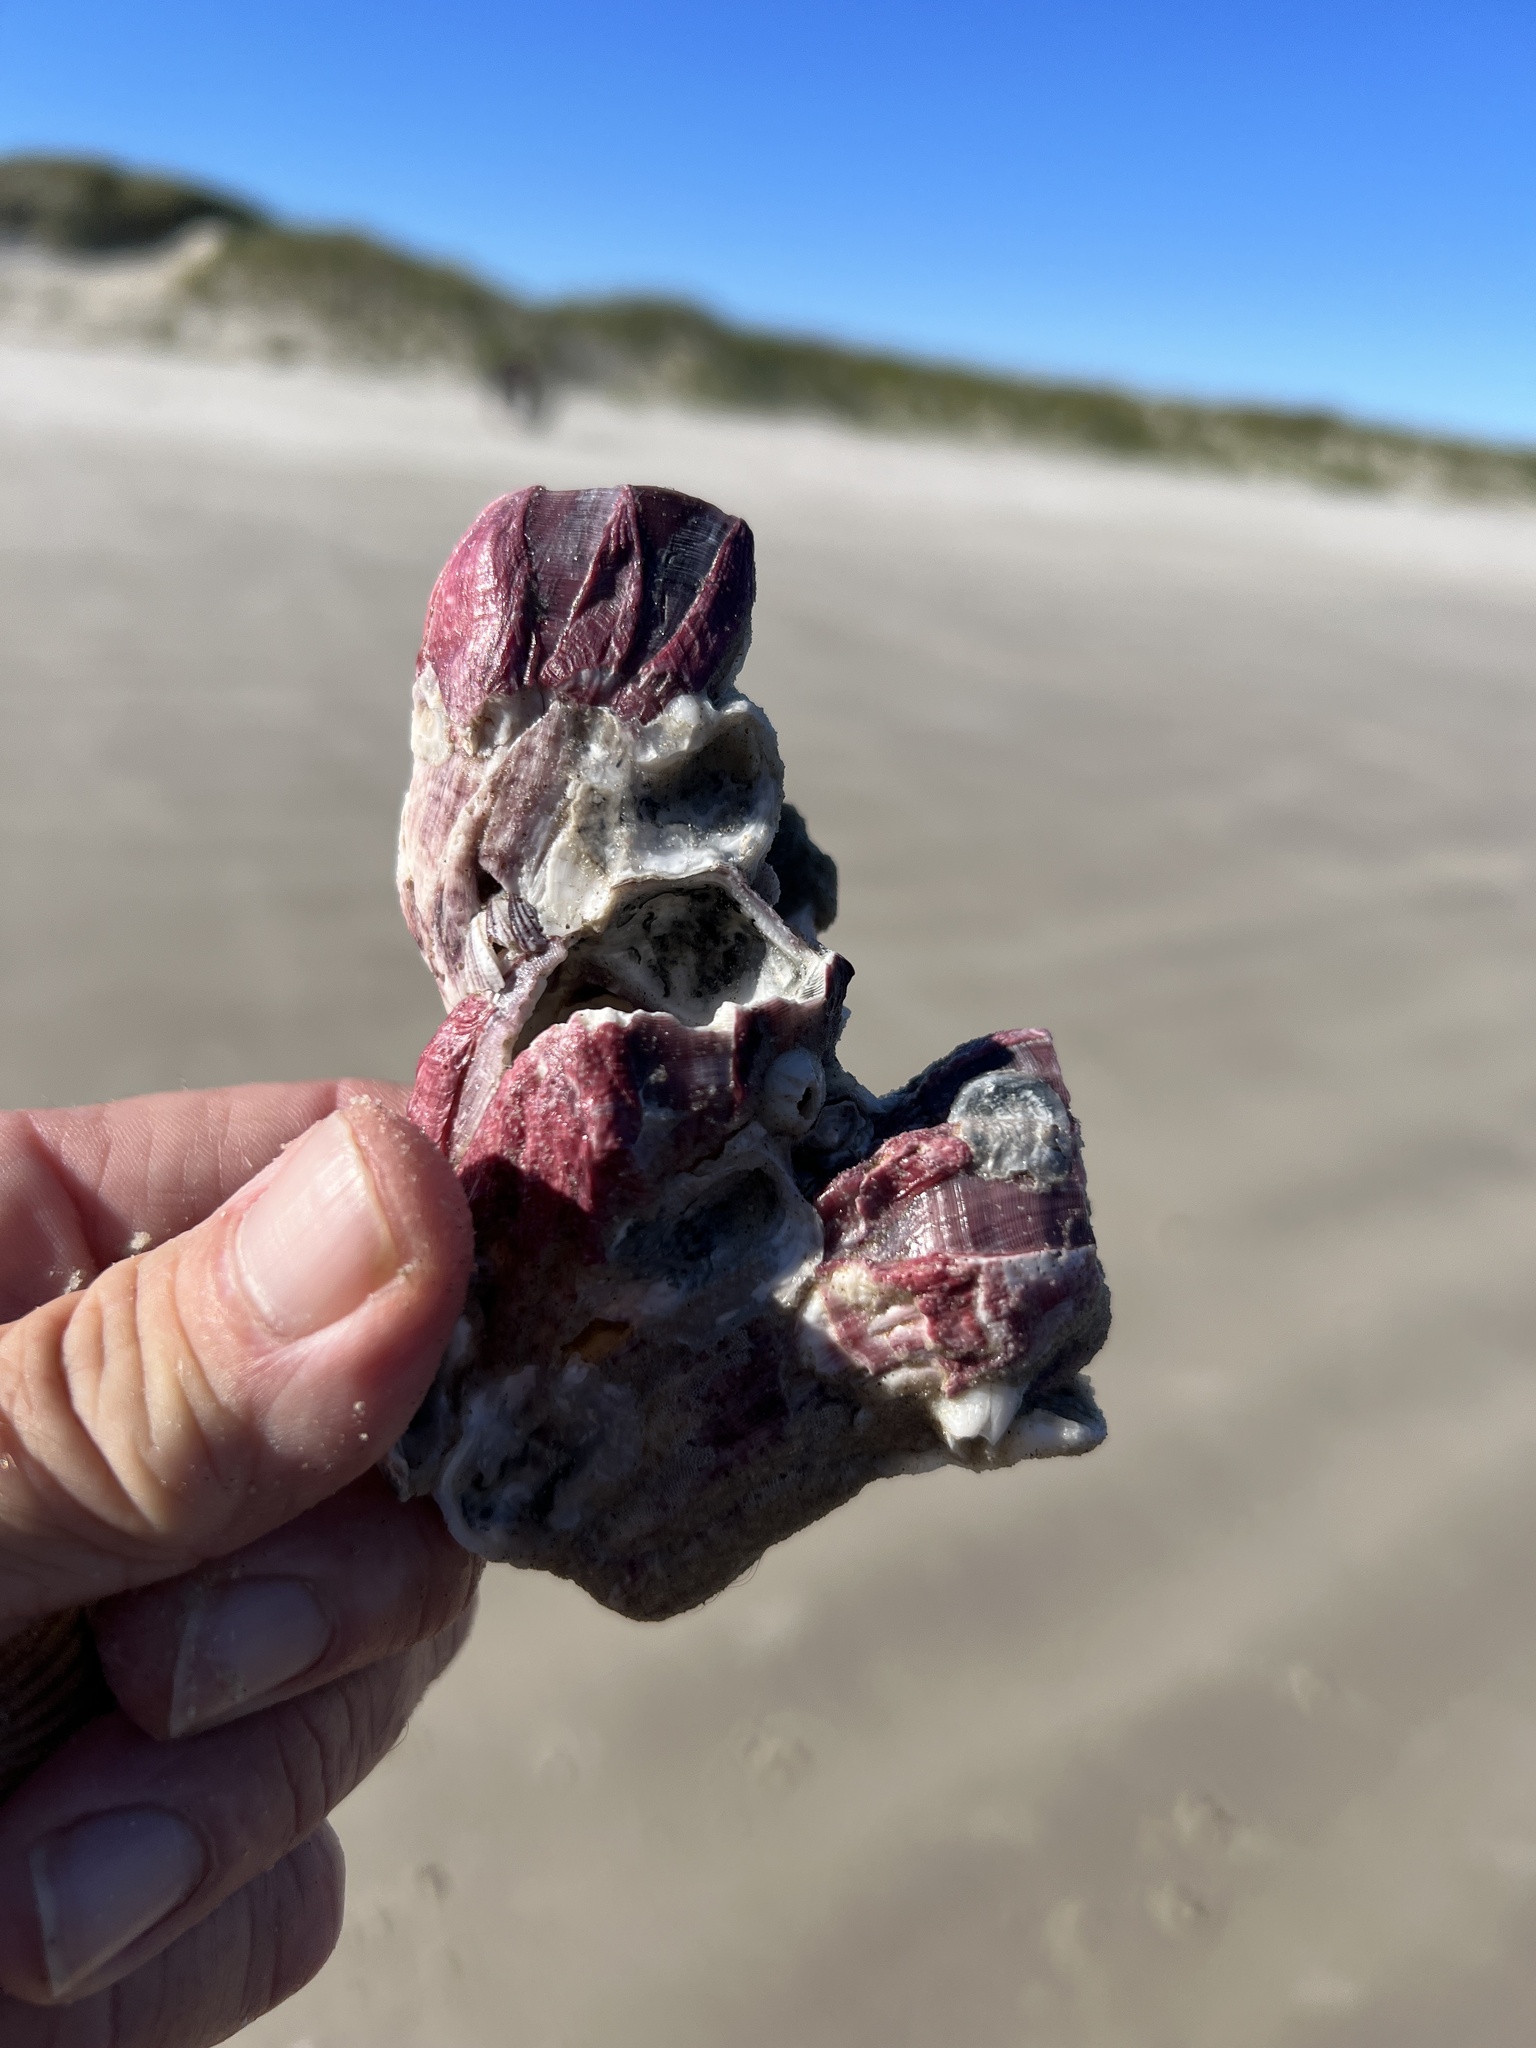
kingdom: Animalia
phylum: Arthropoda
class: Maxillopoda
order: Sessilia
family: Balanidae
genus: Megabalanus
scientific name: Megabalanus tintinnabulum
